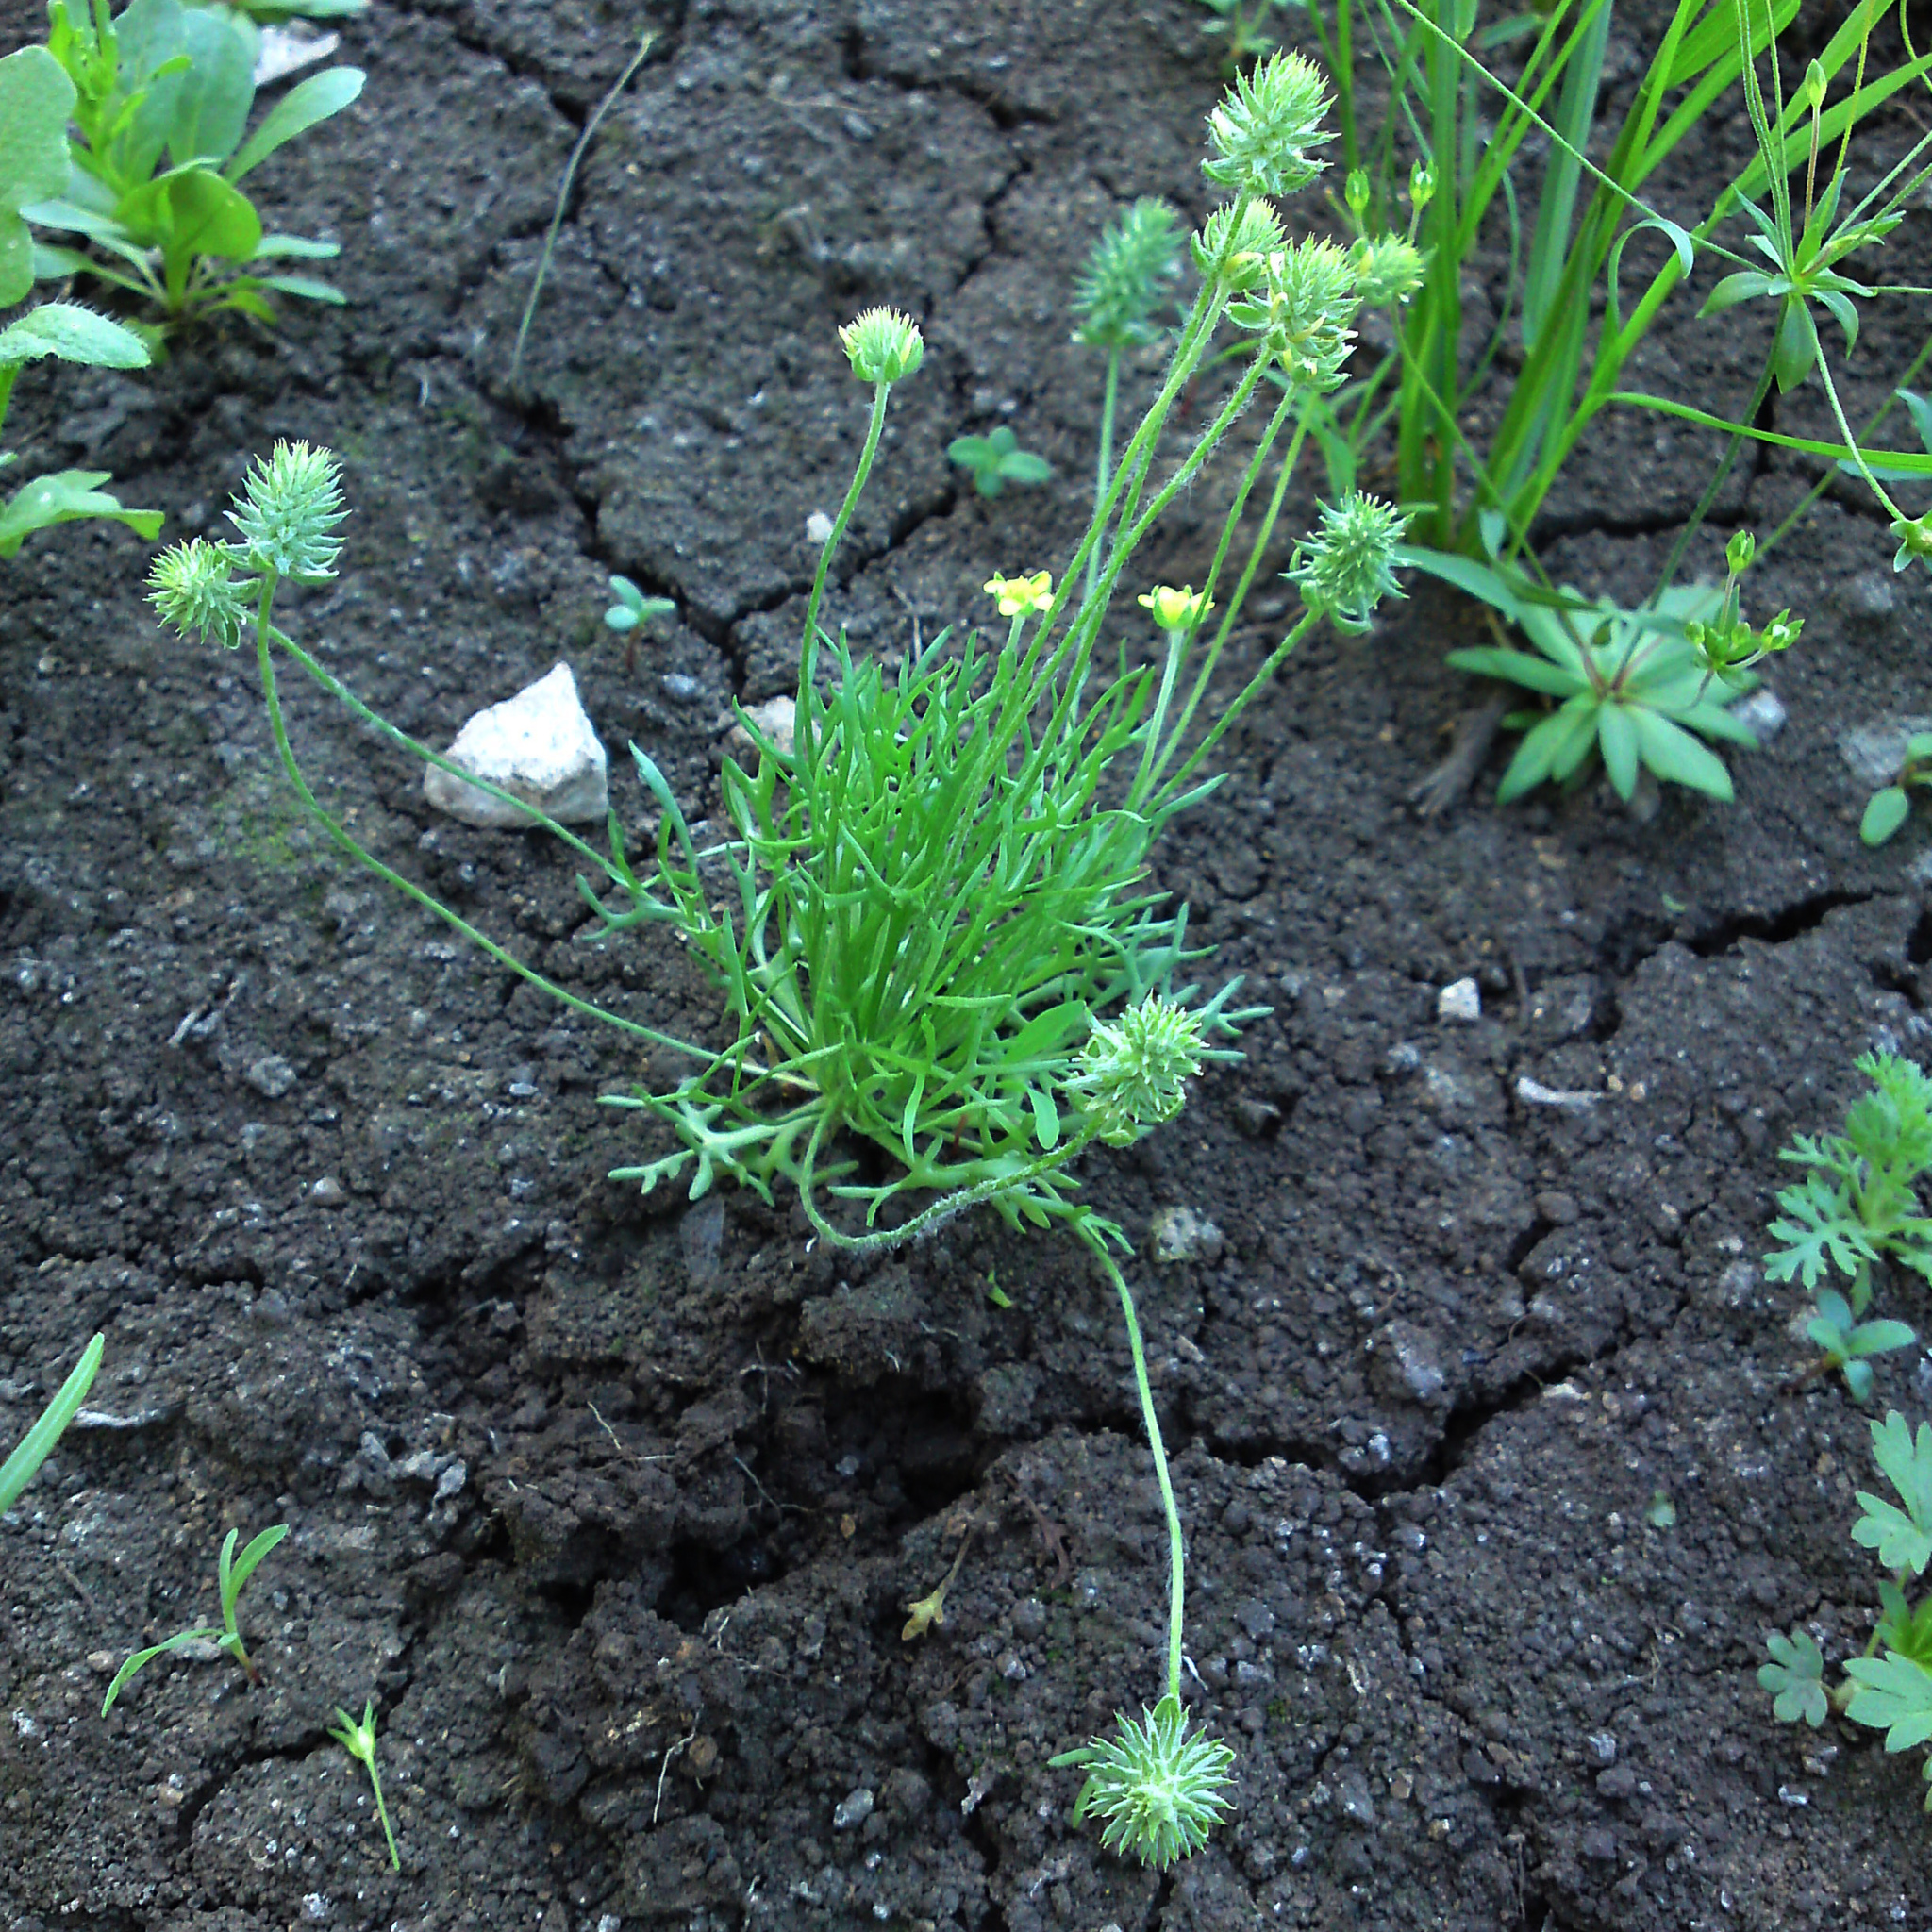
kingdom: Plantae
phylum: Tracheophyta
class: Magnoliopsida
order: Ranunculales
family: Ranunculaceae
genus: Ceratocephala
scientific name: Ceratocephala orthoceras
